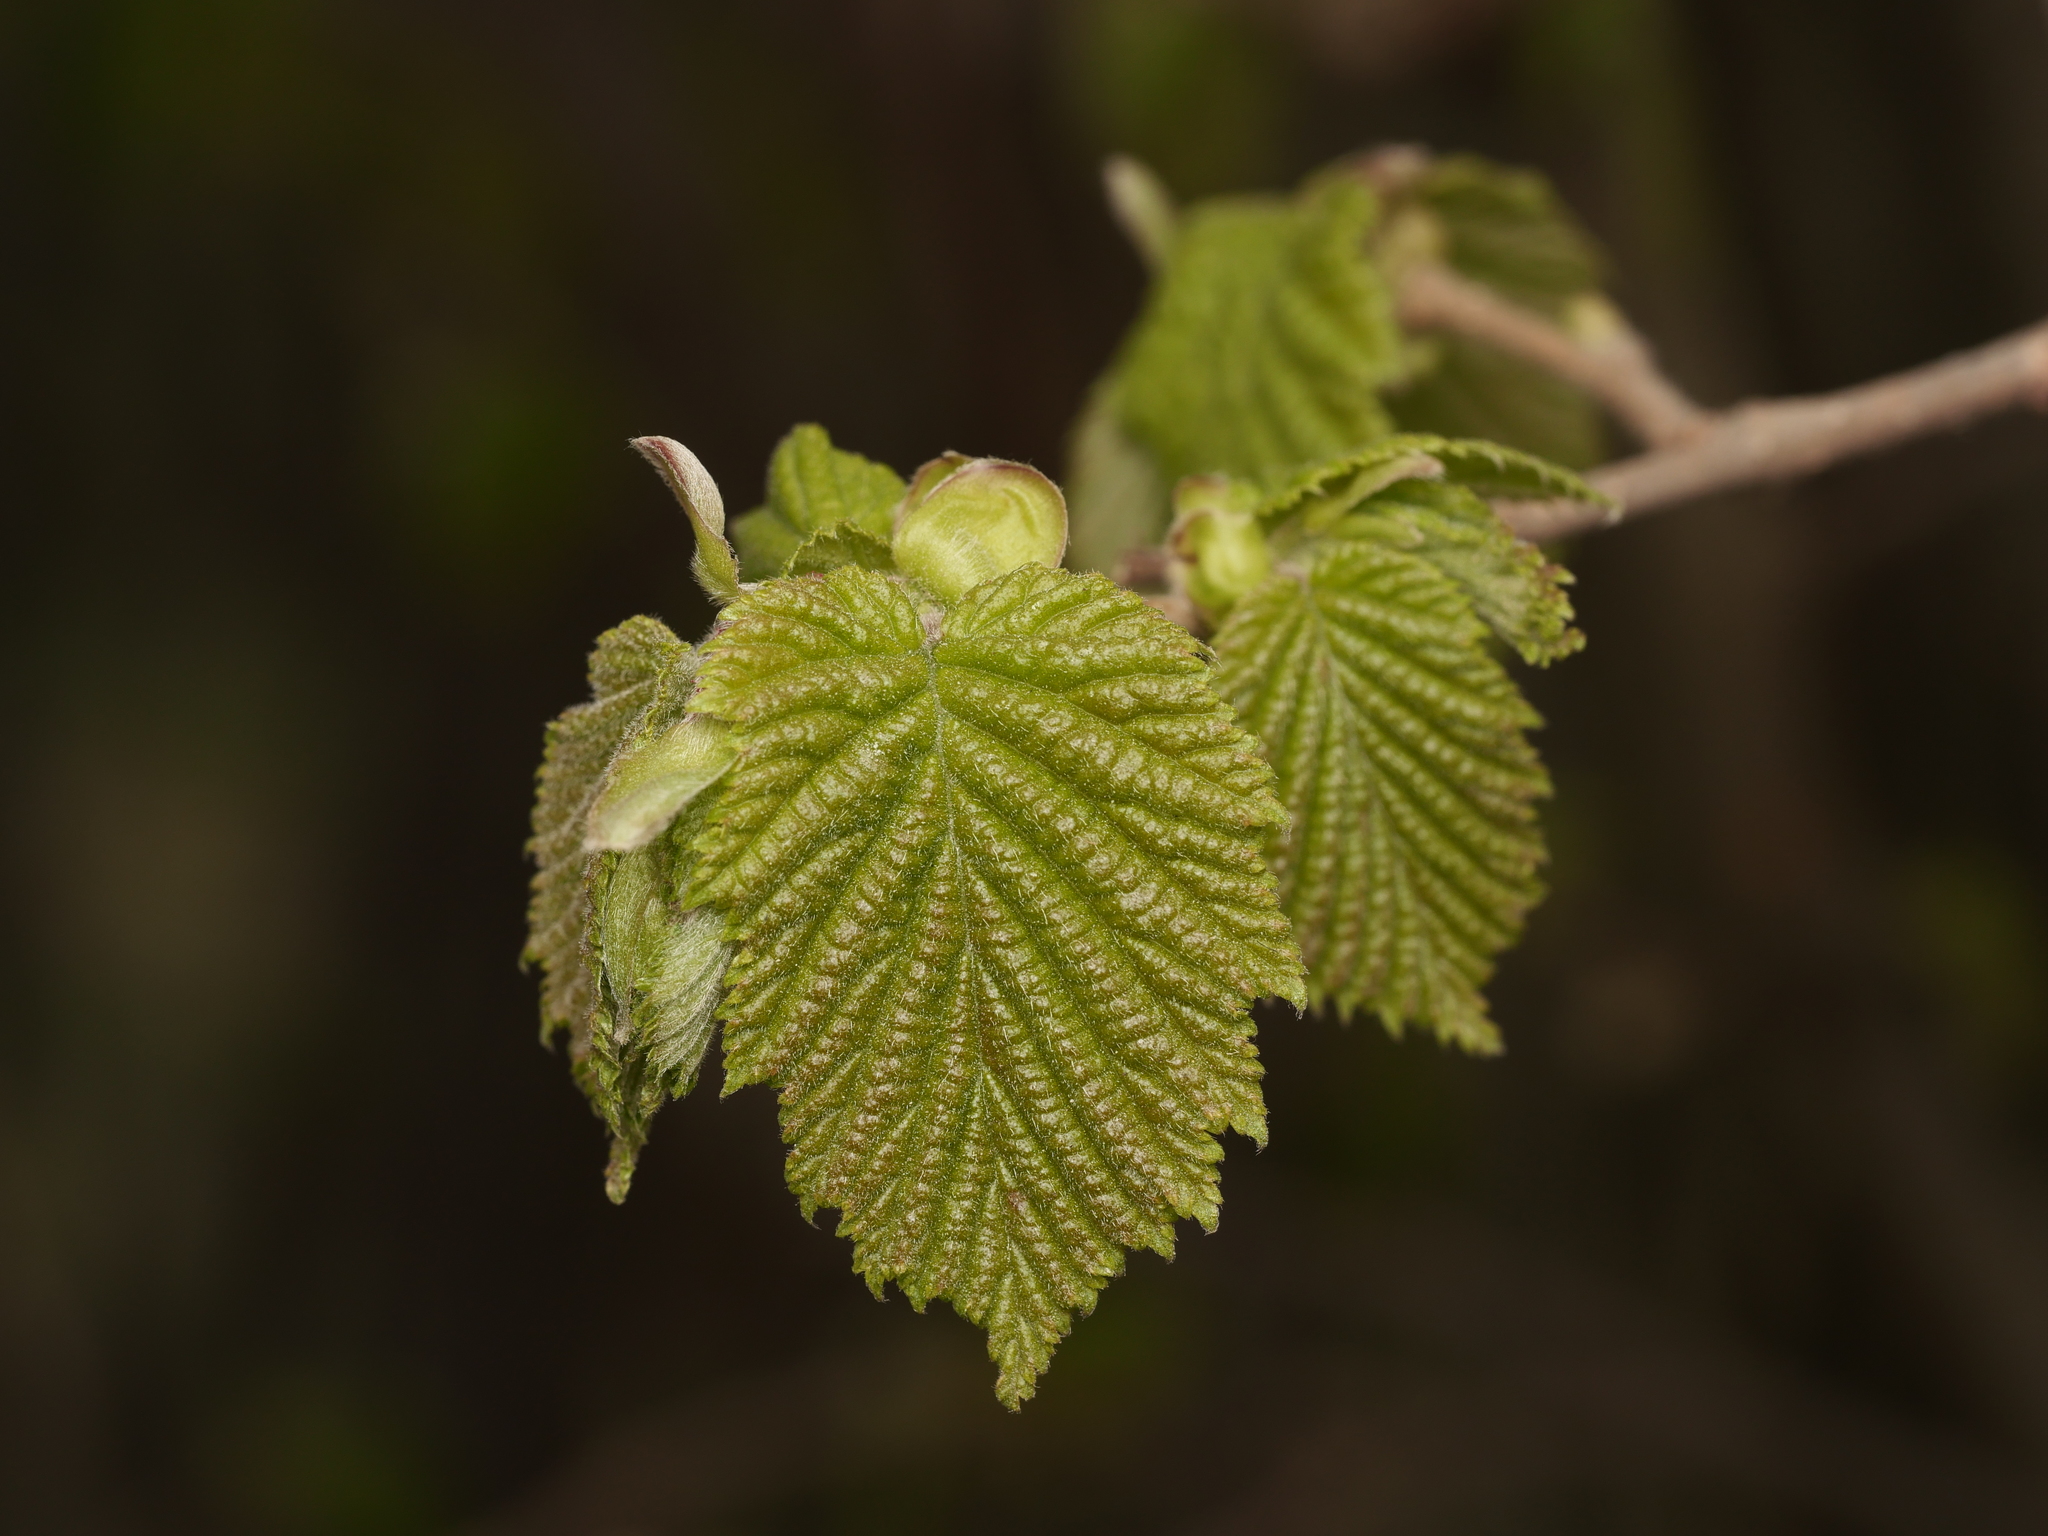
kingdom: Plantae
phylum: Tracheophyta
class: Magnoliopsida
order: Fagales
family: Betulaceae
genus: Corylus
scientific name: Corylus avellana
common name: European hazel
